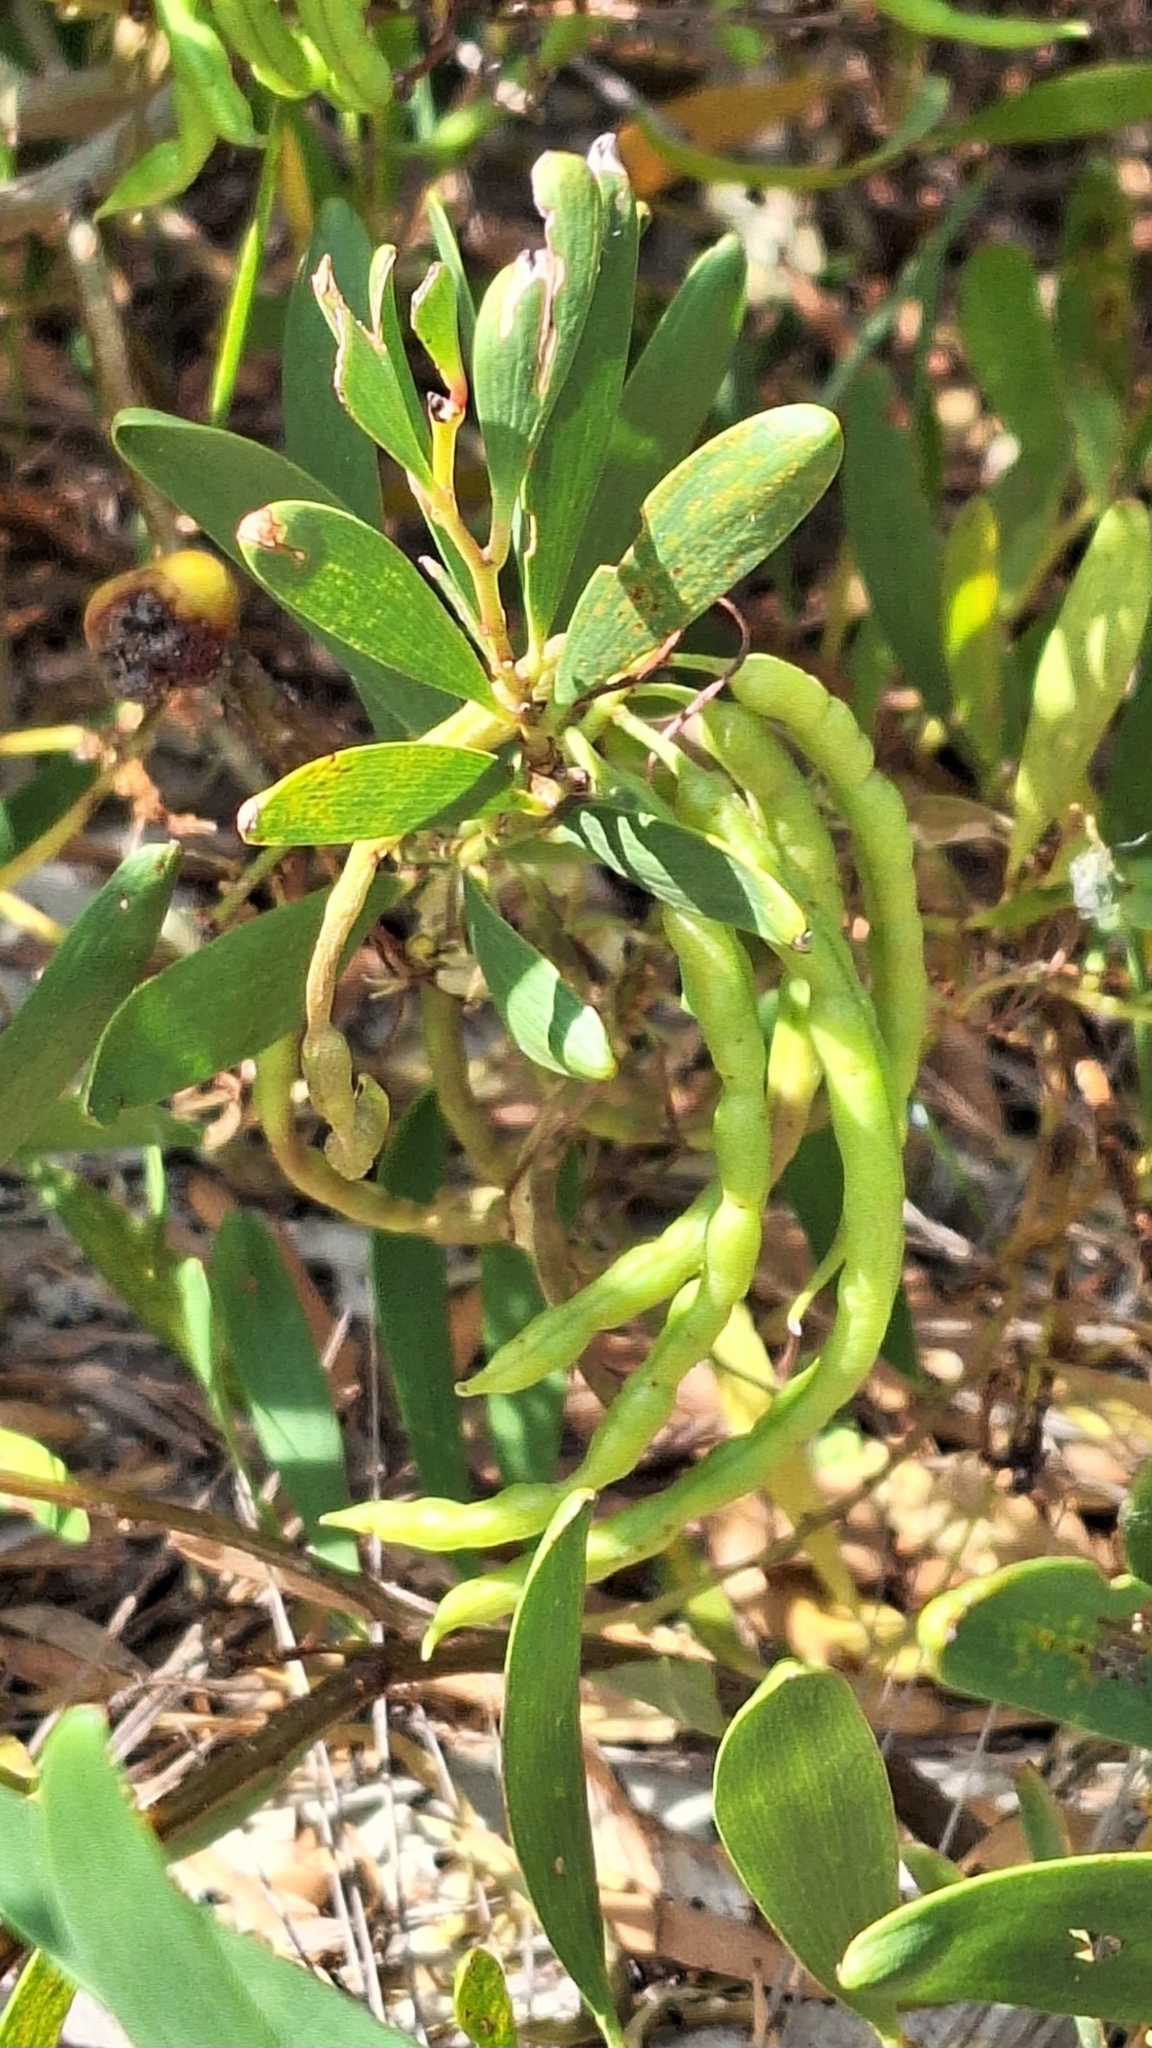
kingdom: Plantae
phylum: Tracheophyta
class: Magnoliopsida
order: Fabales
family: Fabaceae
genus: Acacia
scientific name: Acacia longifolia
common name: Sydney golden wattle
